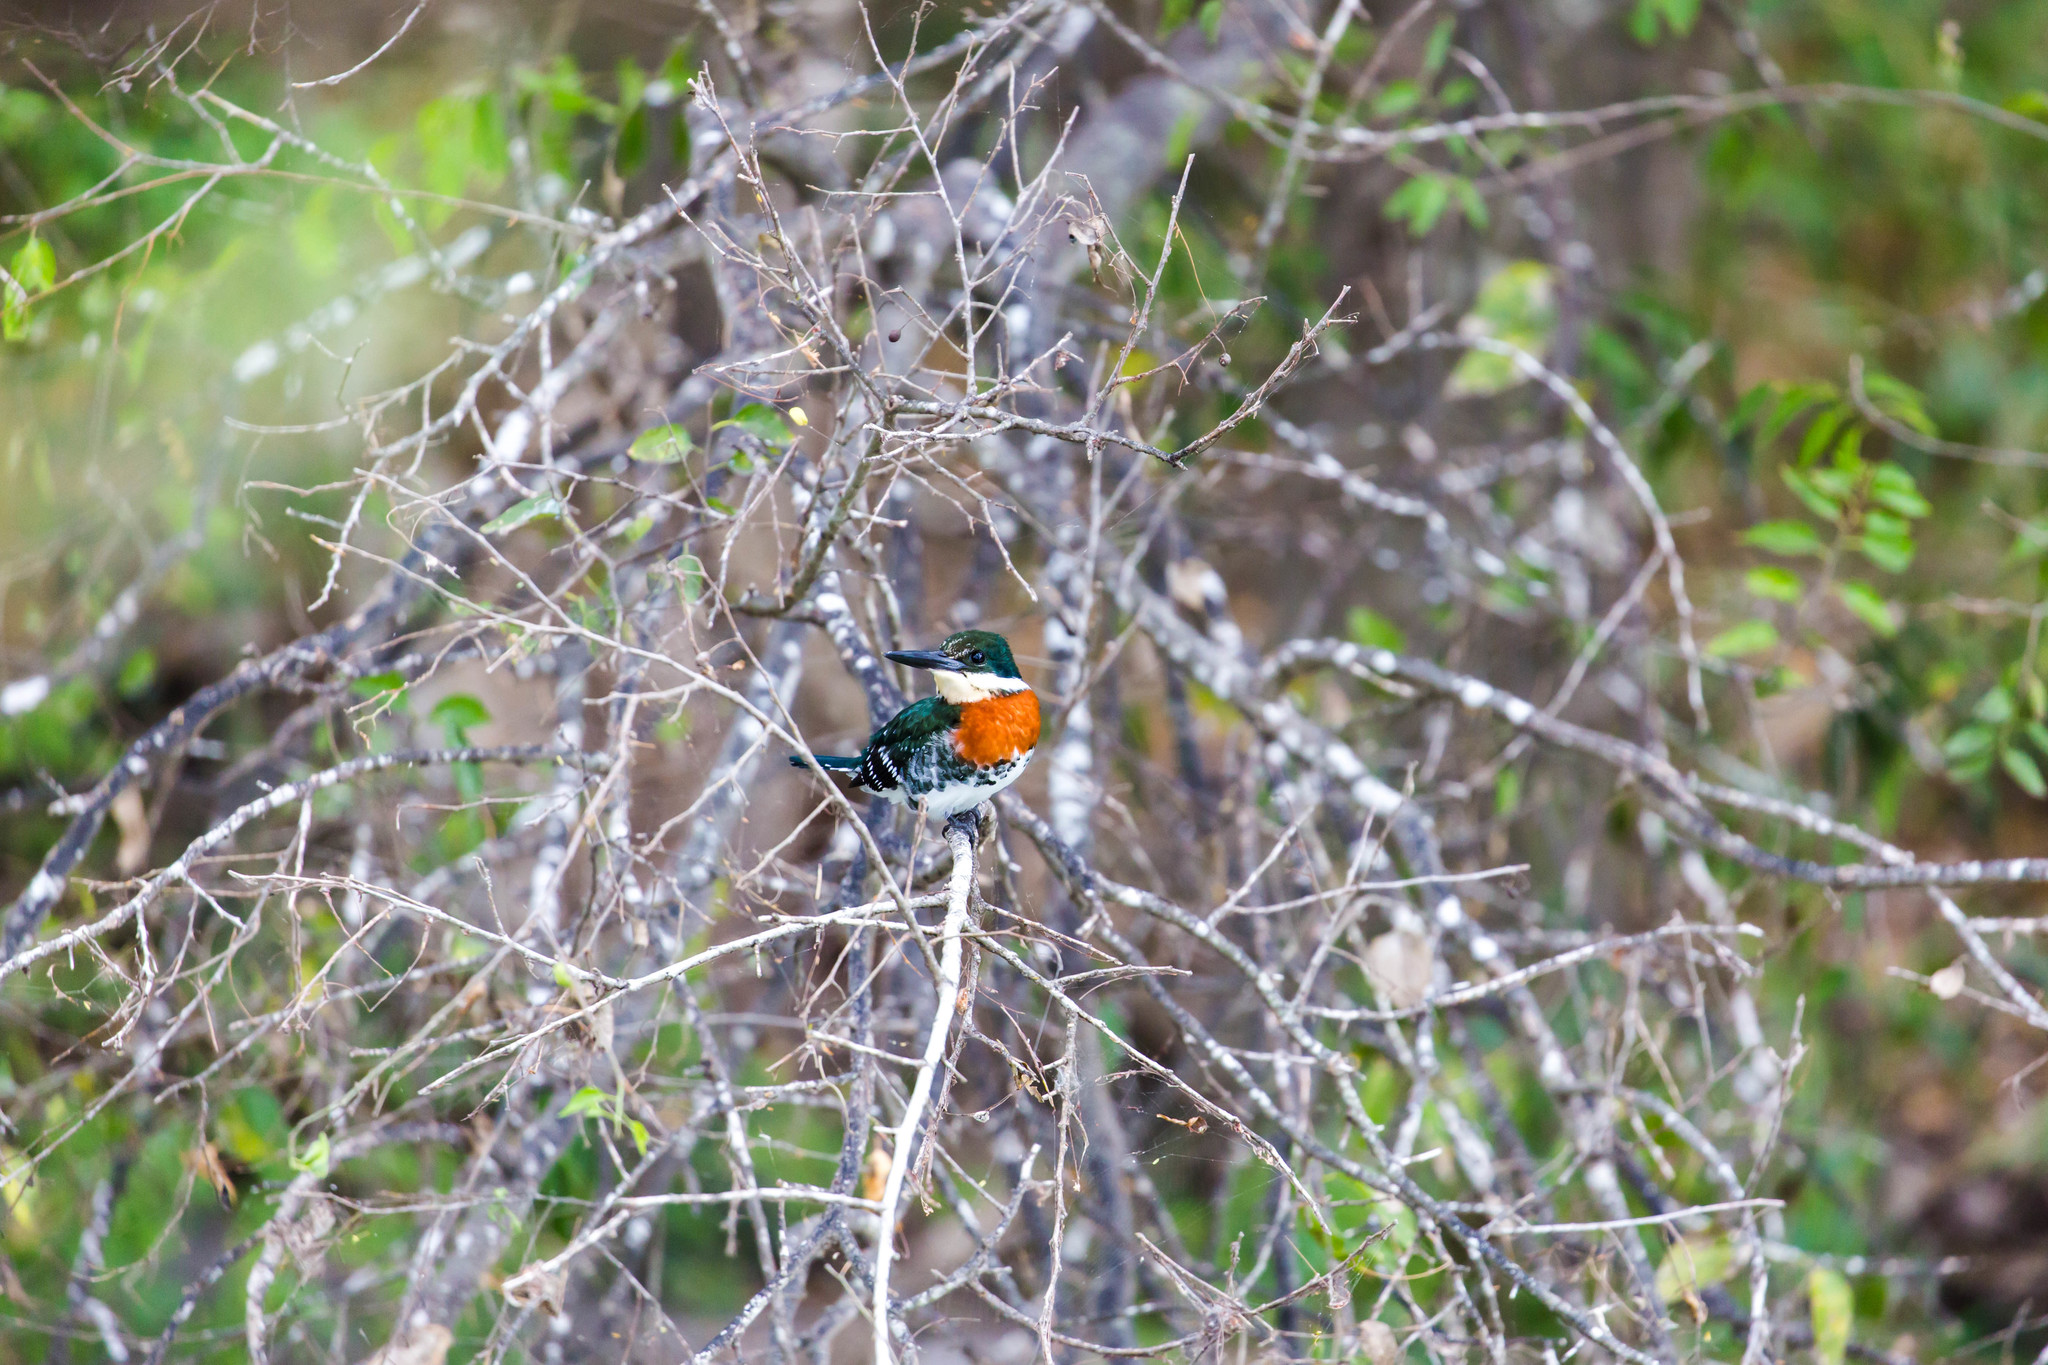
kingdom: Animalia
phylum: Chordata
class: Aves
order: Coraciiformes
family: Alcedinidae
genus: Chloroceryle
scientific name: Chloroceryle americana
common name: Green kingfisher
